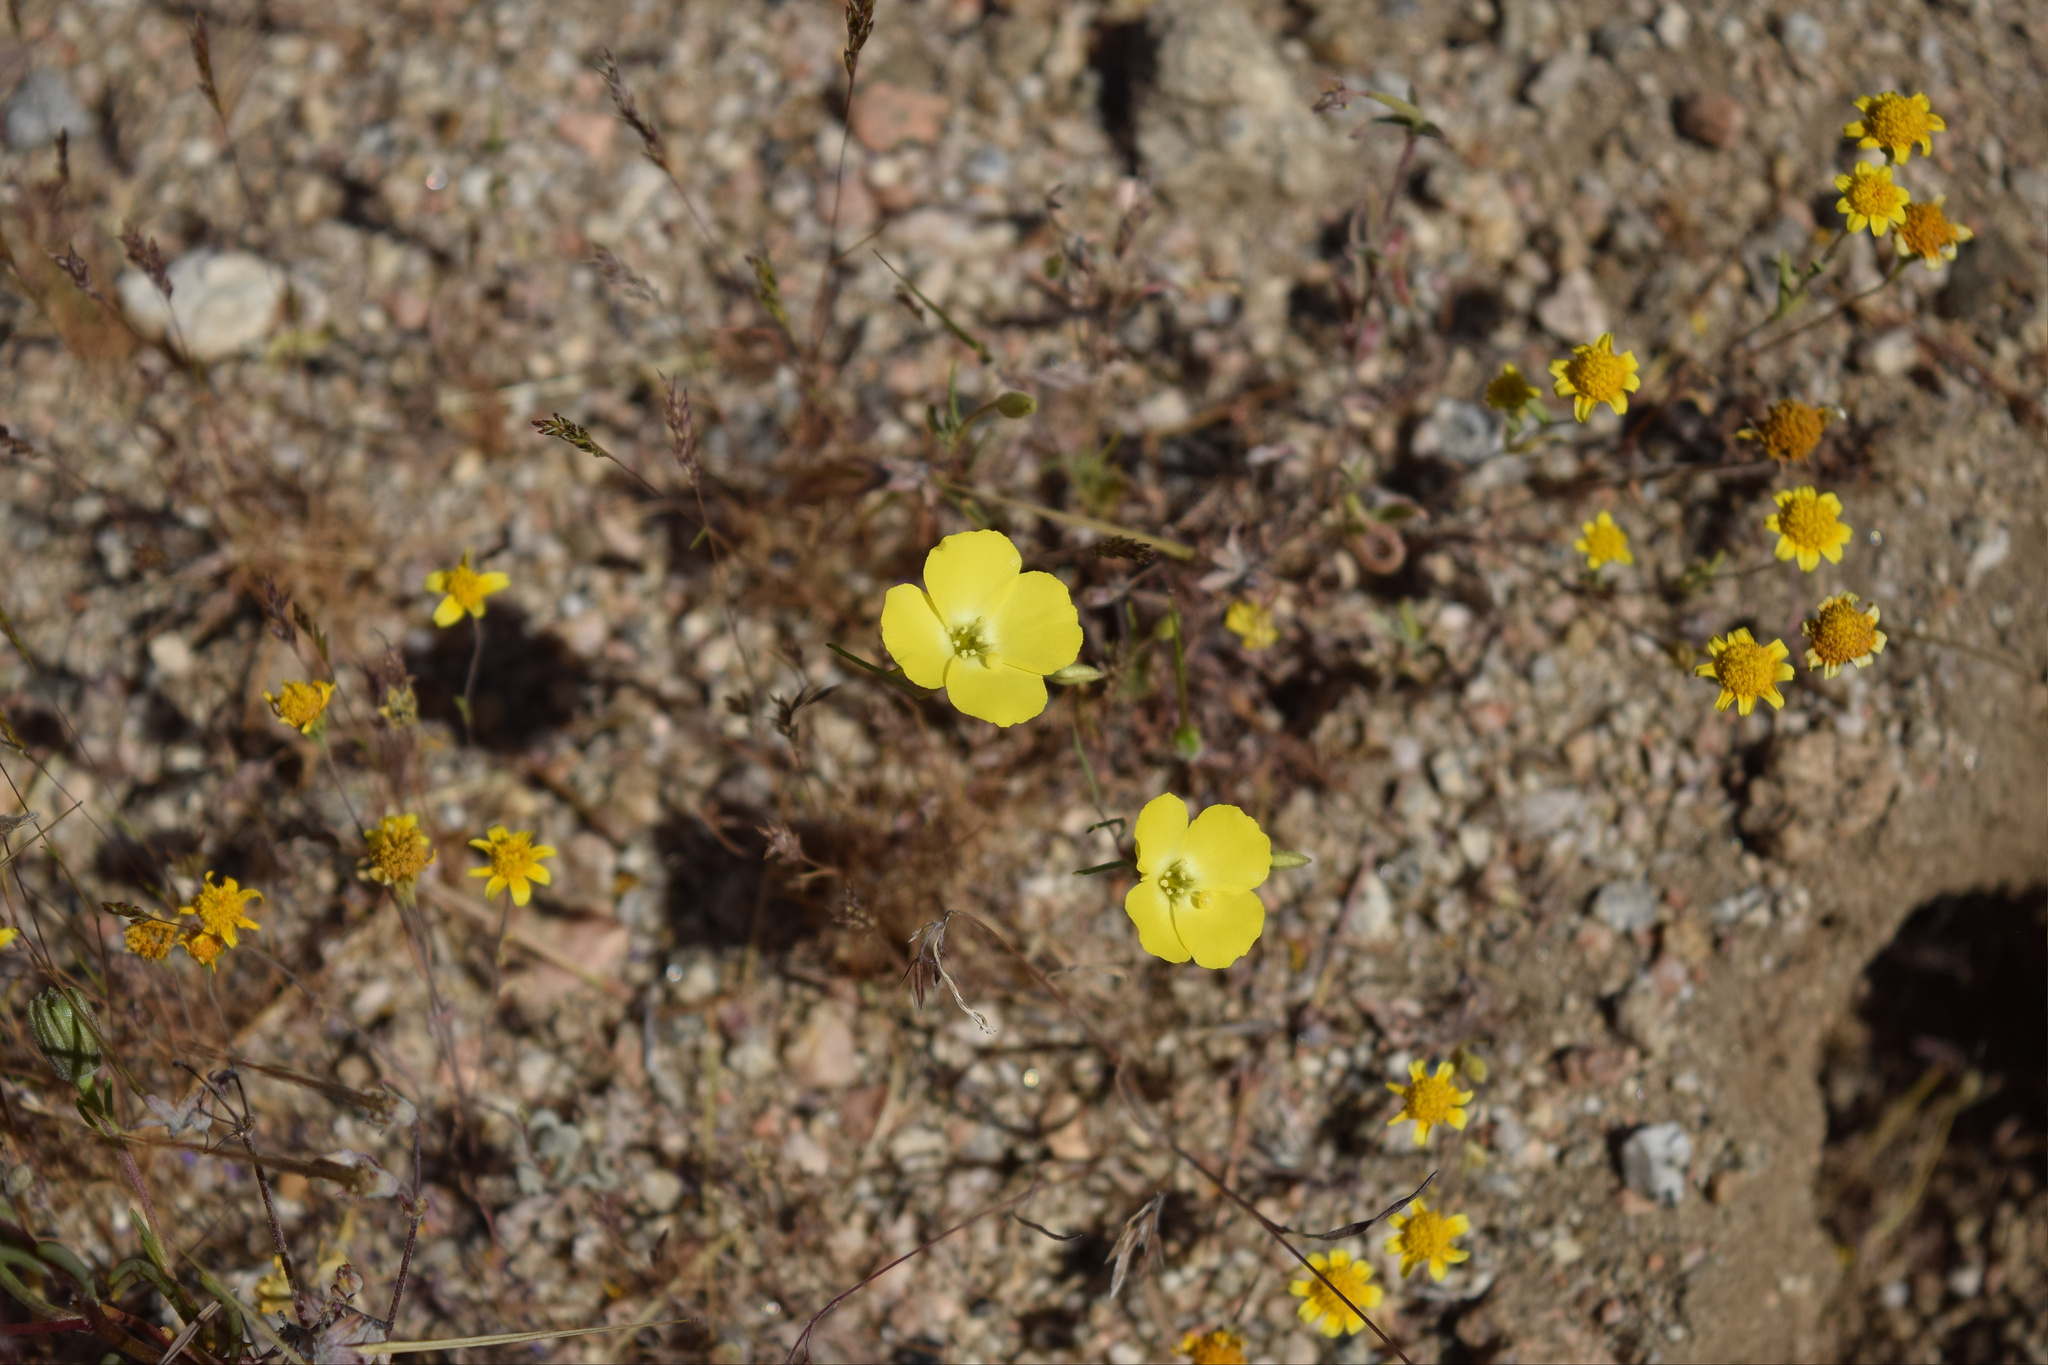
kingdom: Plantae
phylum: Tracheophyta
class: Magnoliopsida
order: Myrtales
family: Onagraceae
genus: Camissonia
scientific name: Camissonia campestris
